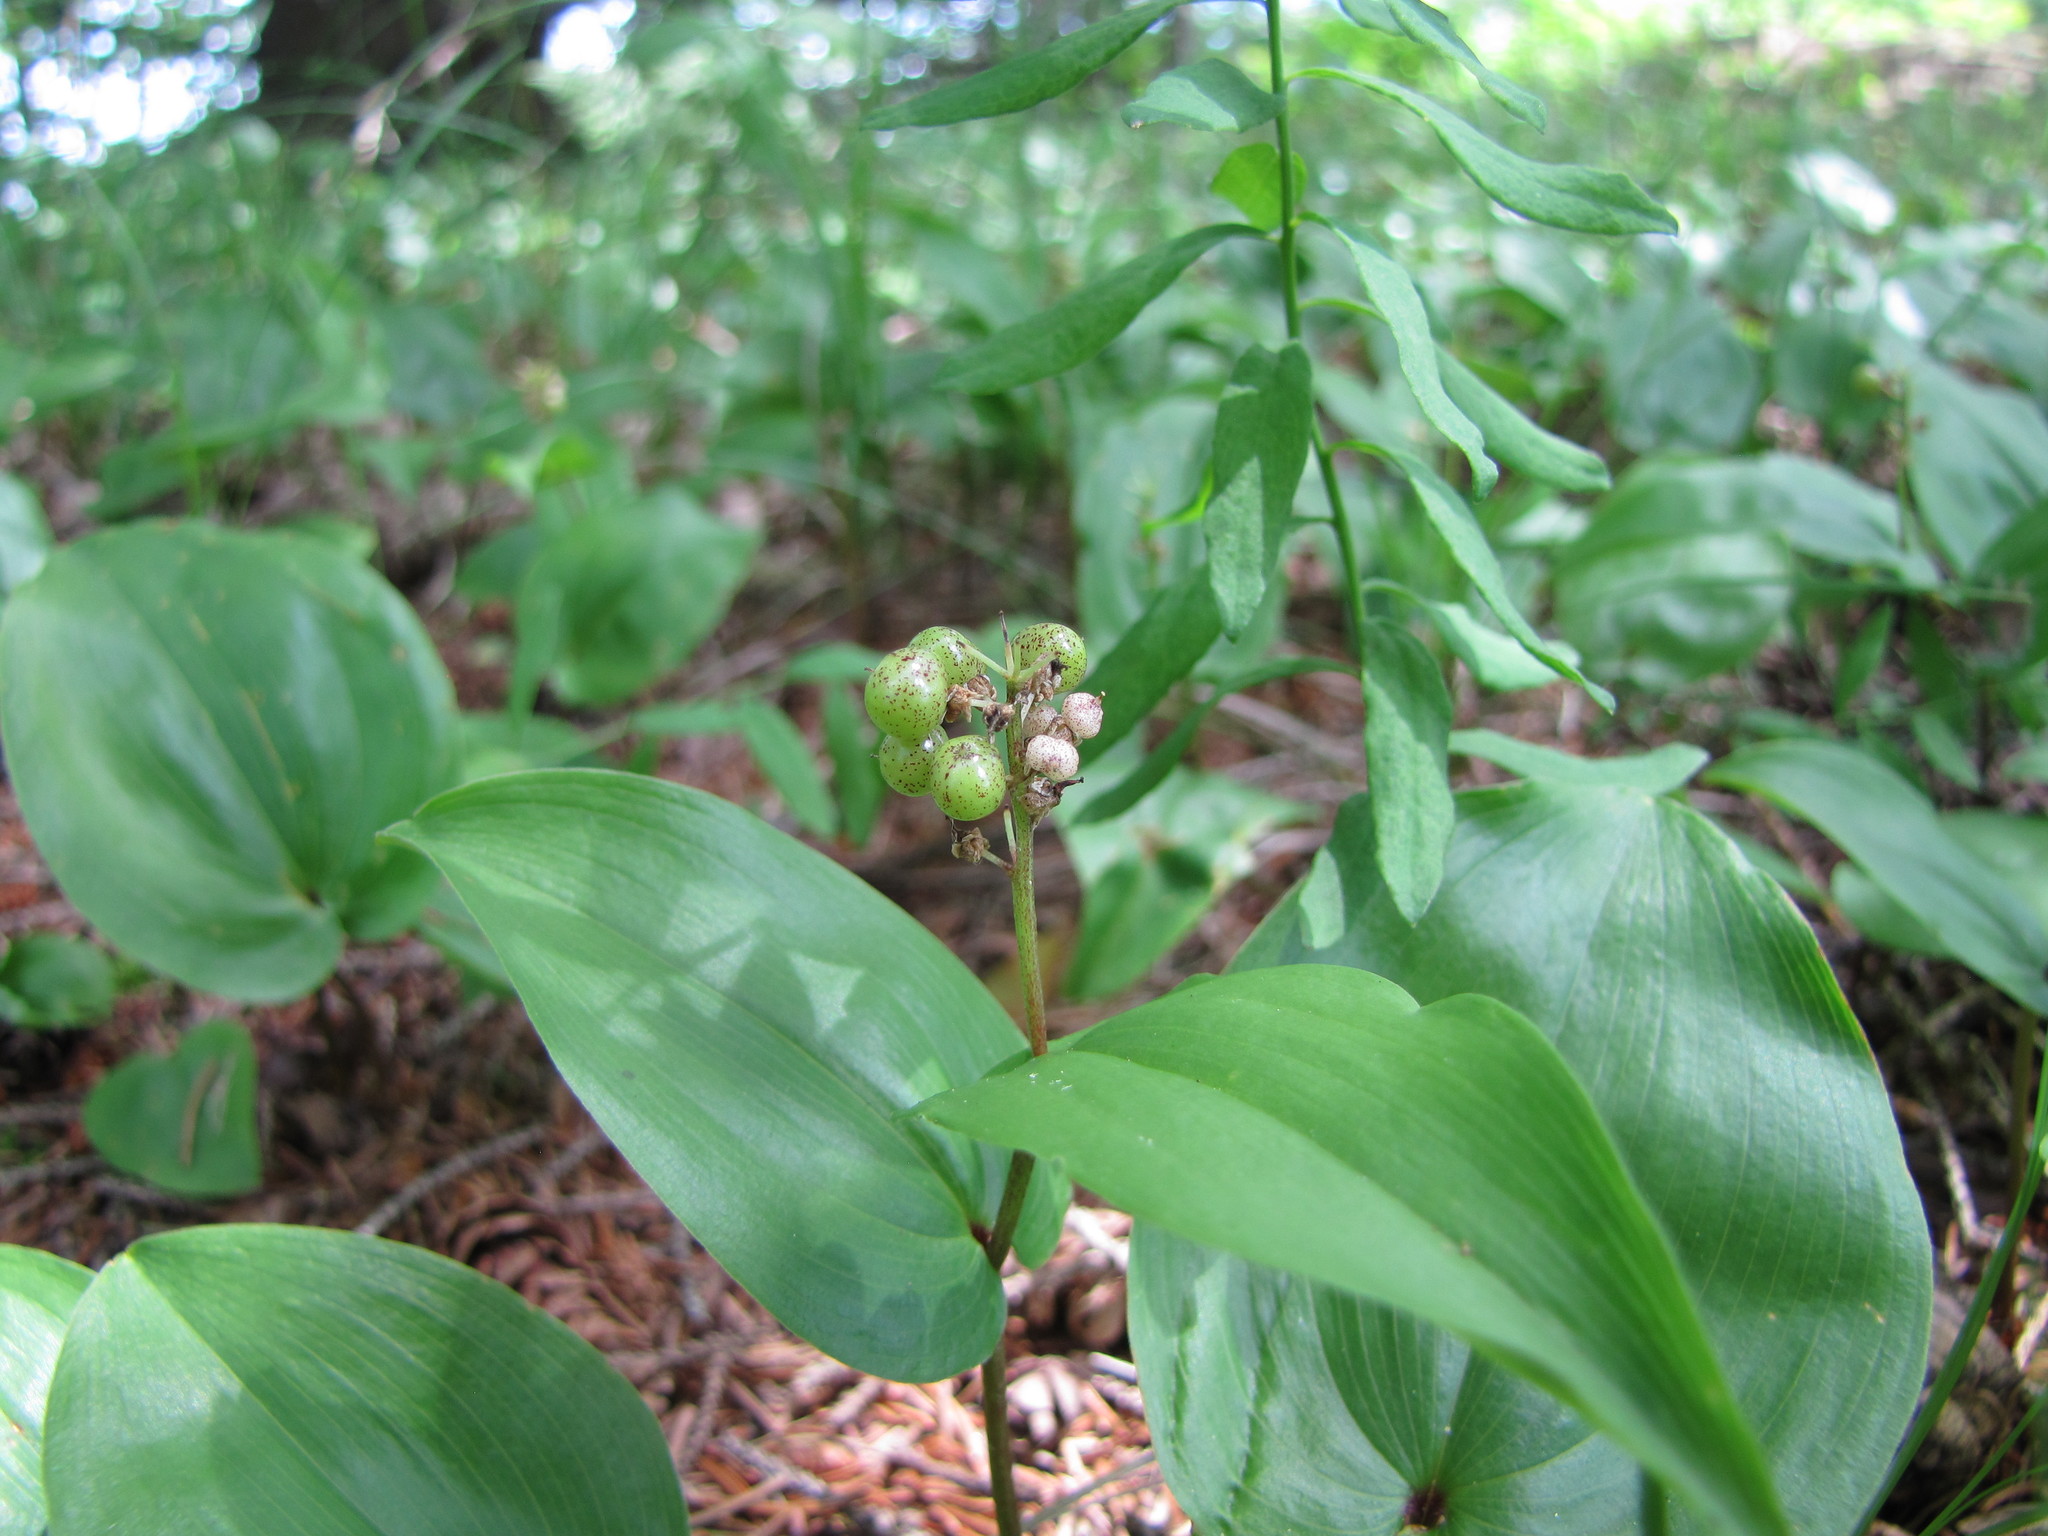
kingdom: Plantae
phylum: Tracheophyta
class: Liliopsida
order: Asparagales
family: Asparagaceae
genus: Maianthemum
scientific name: Maianthemum canadense
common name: False lily-of-the-valley
